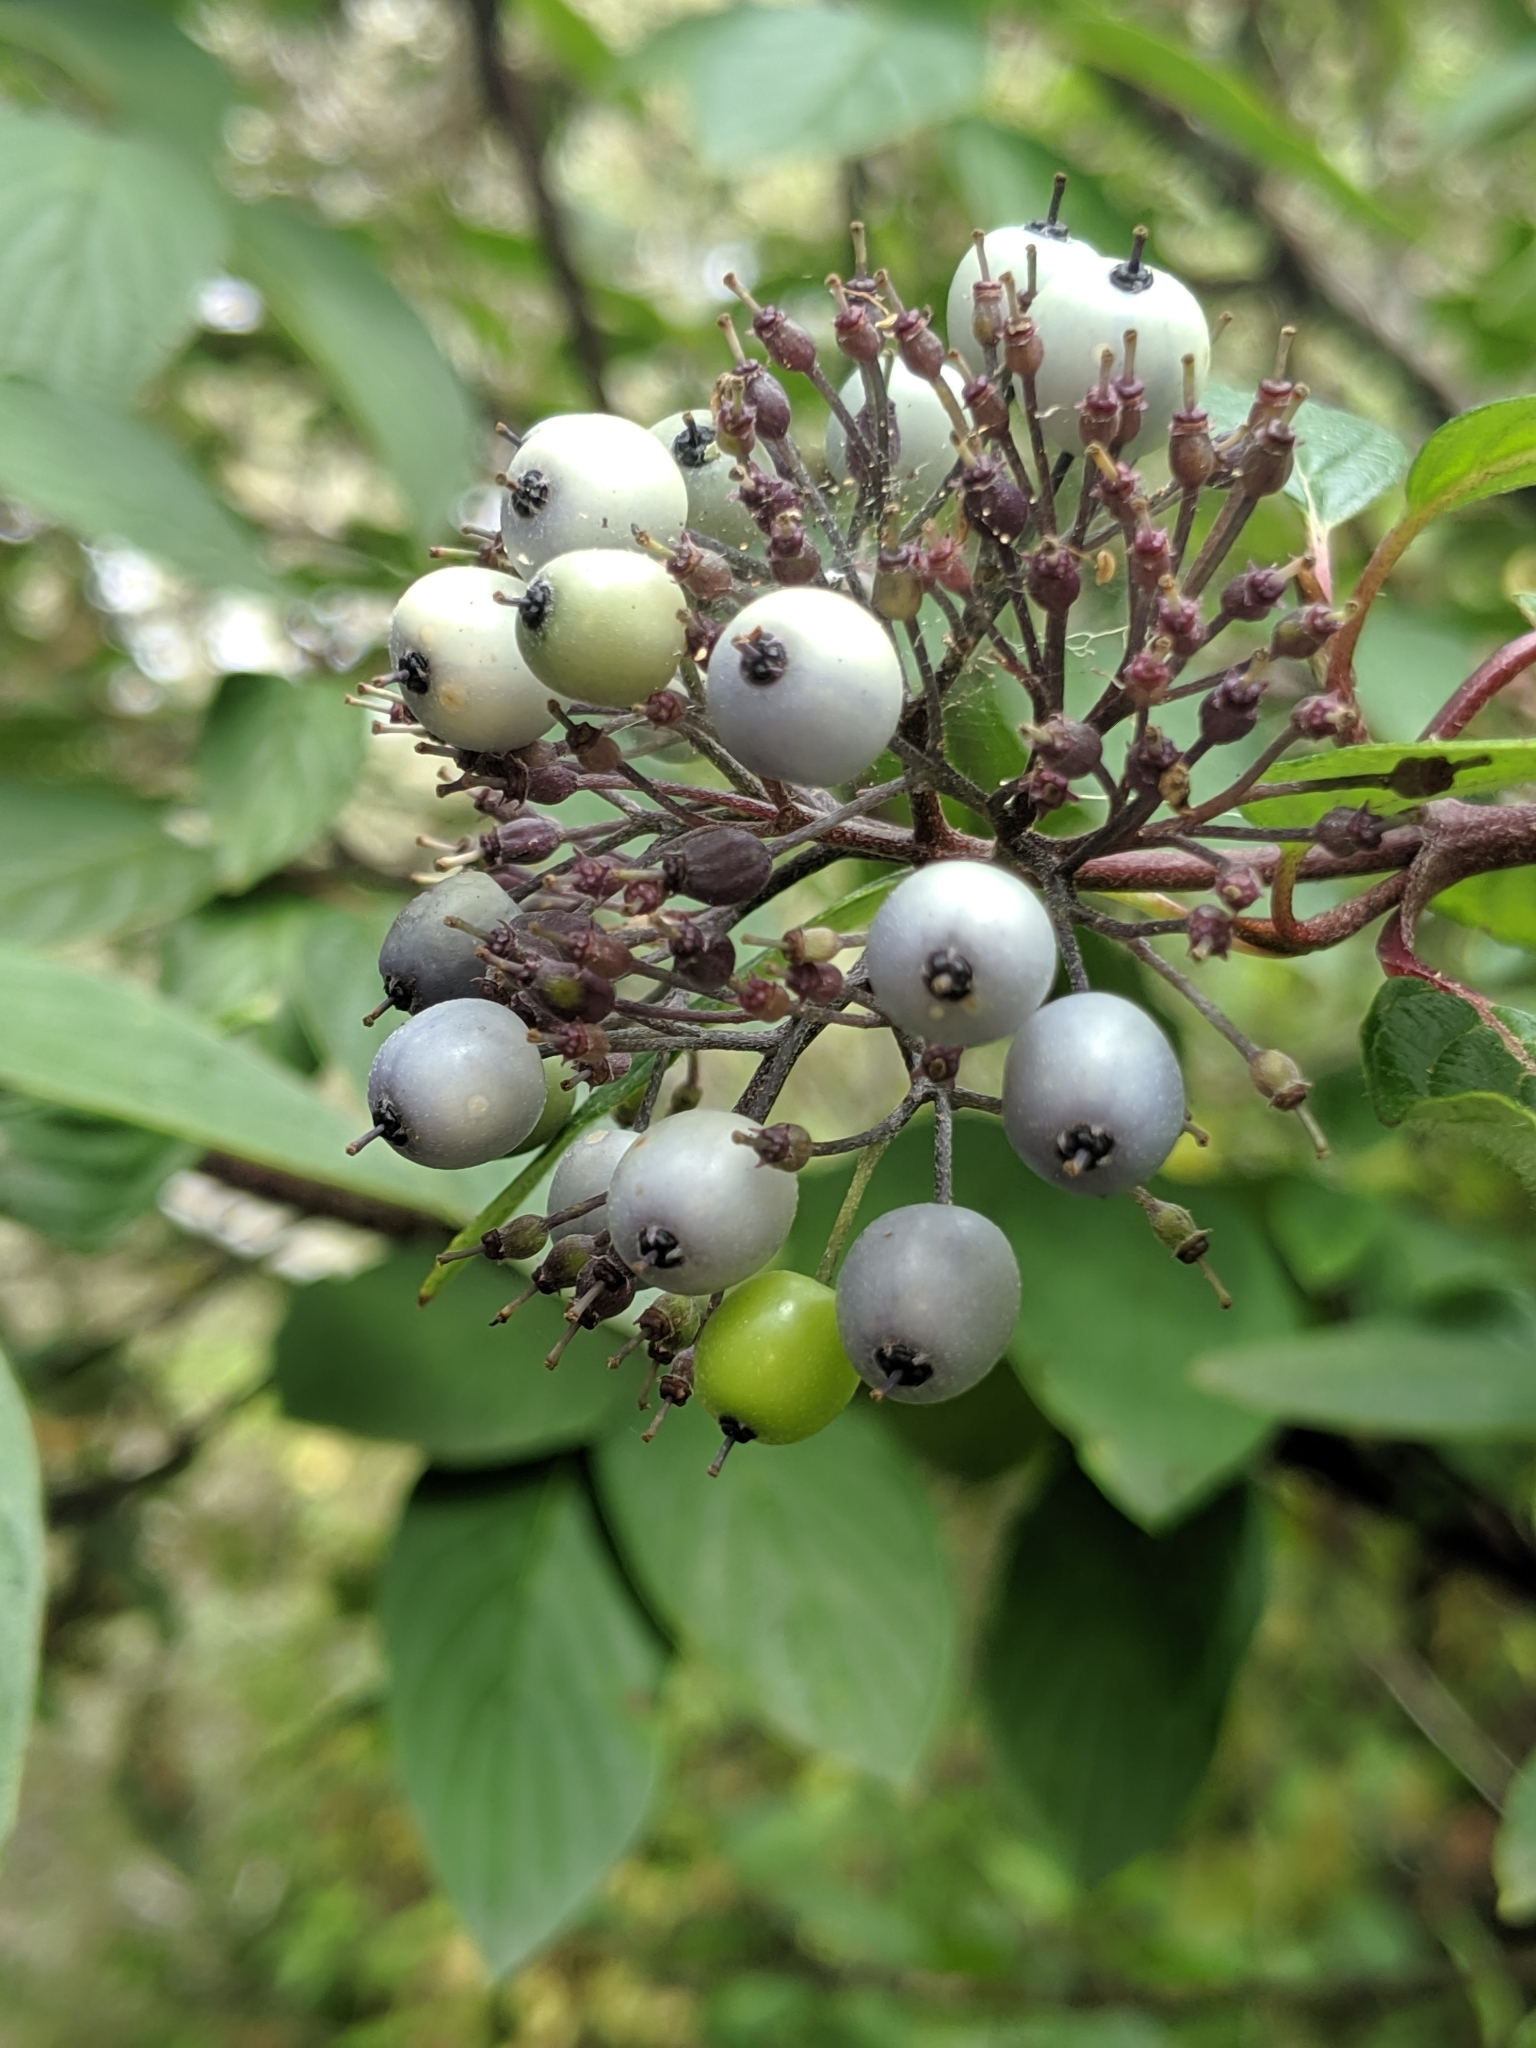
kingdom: Plantae
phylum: Tracheophyta
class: Magnoliopsida
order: Cornales
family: Cornaceae
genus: Cornus
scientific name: Cornus sericea
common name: Red-osier dogwood
